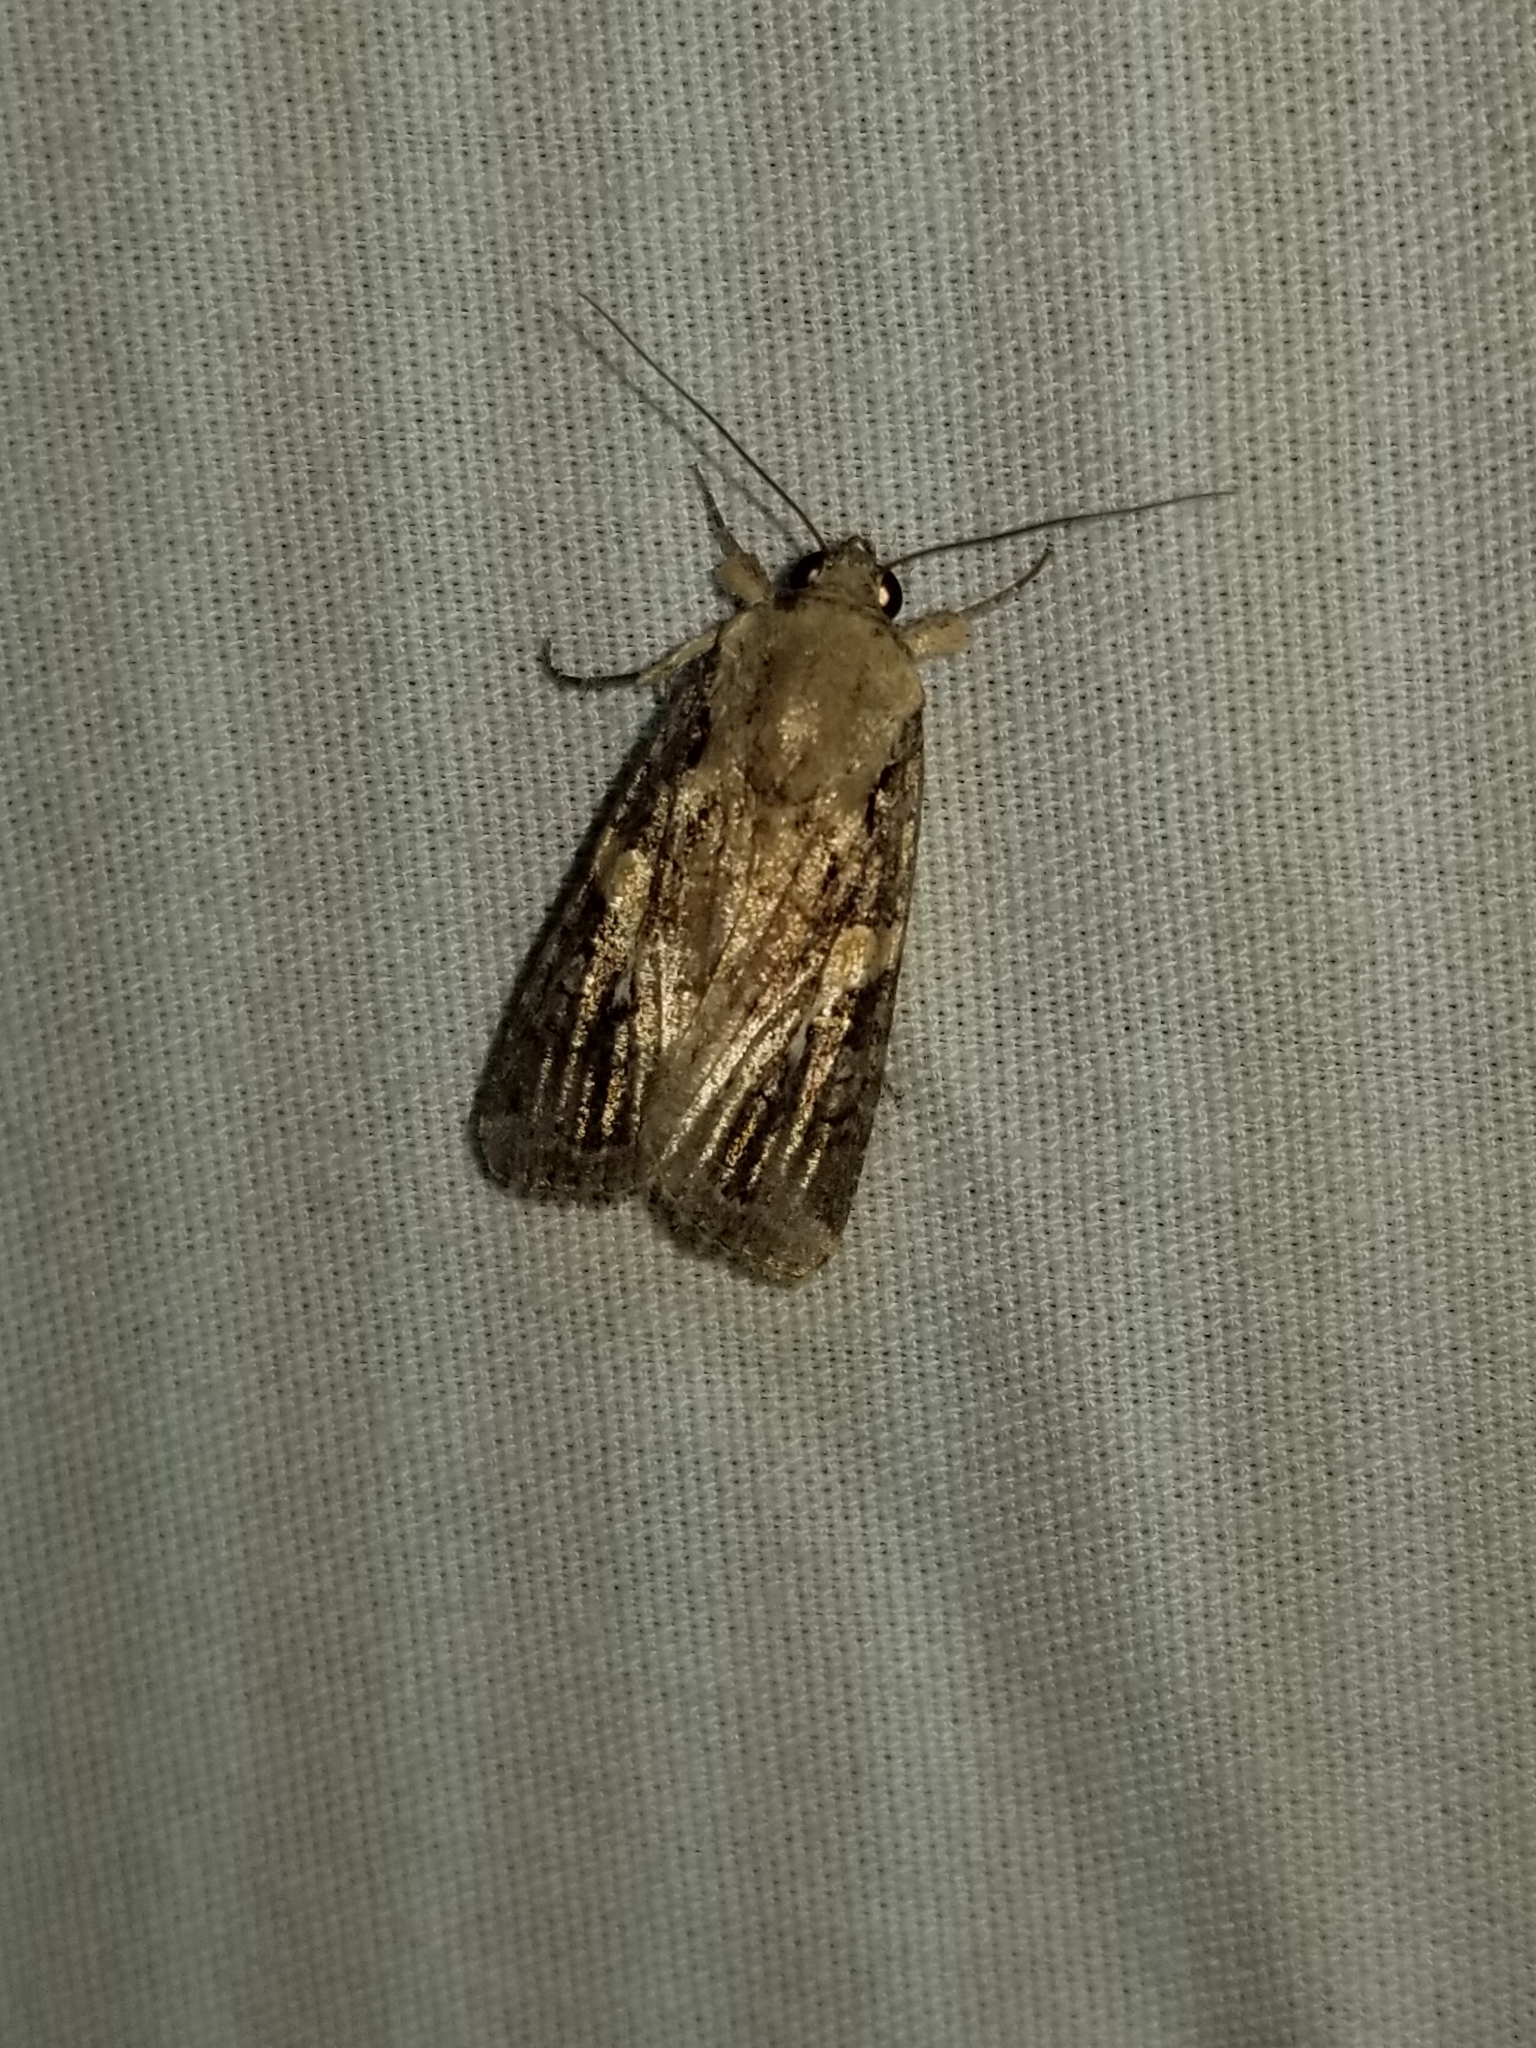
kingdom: Animalia
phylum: Arthropoda
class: Insecta
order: Lepidoptera
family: Noctuidae
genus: Spodoptera
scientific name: Spodoptera frugiperda
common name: Fall armyworm
